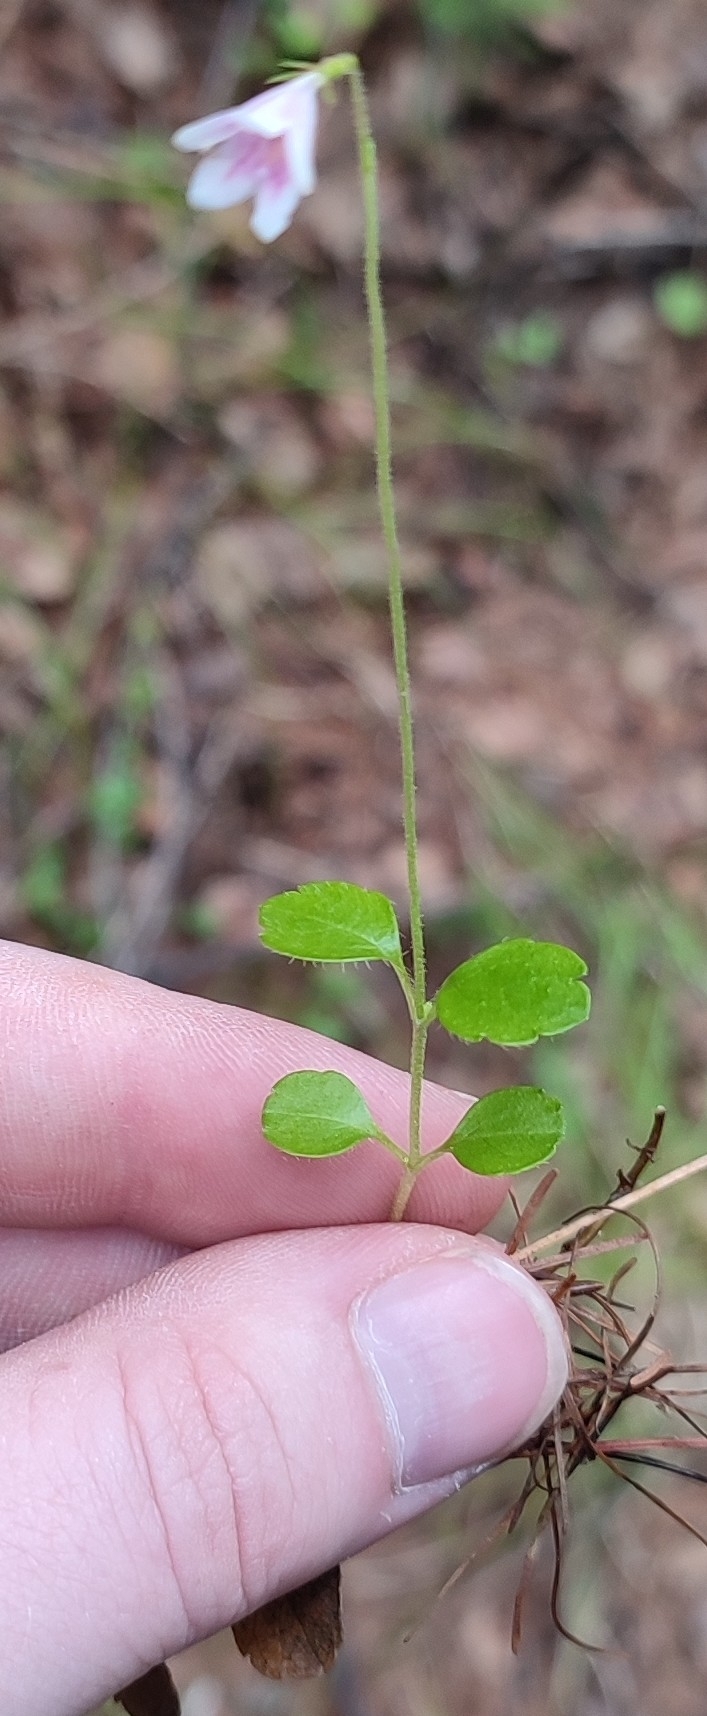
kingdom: Plantae
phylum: Tracheophyta
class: Magnoliopsida
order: Dipsacales
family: Caprifoliaceae
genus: Linnaea
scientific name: Linnaea borealis
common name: Twinflower
